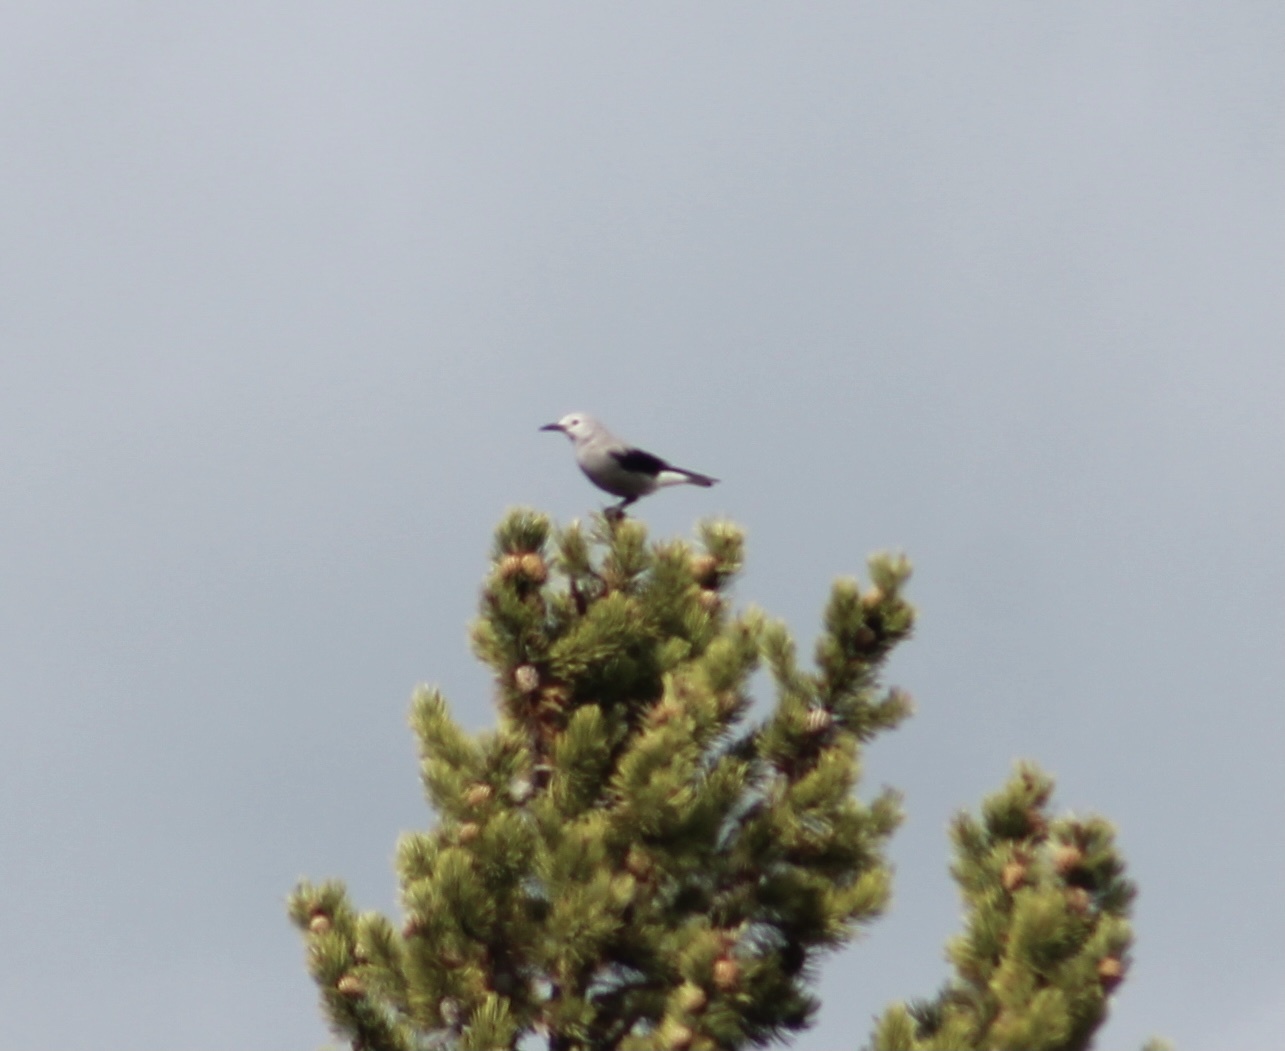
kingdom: Animalia
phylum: Chordata
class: Aves
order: Passeriformes
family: Corvidae
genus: Nucifraga
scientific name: Nucifraga columbiana
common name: Clark's nutcracker
